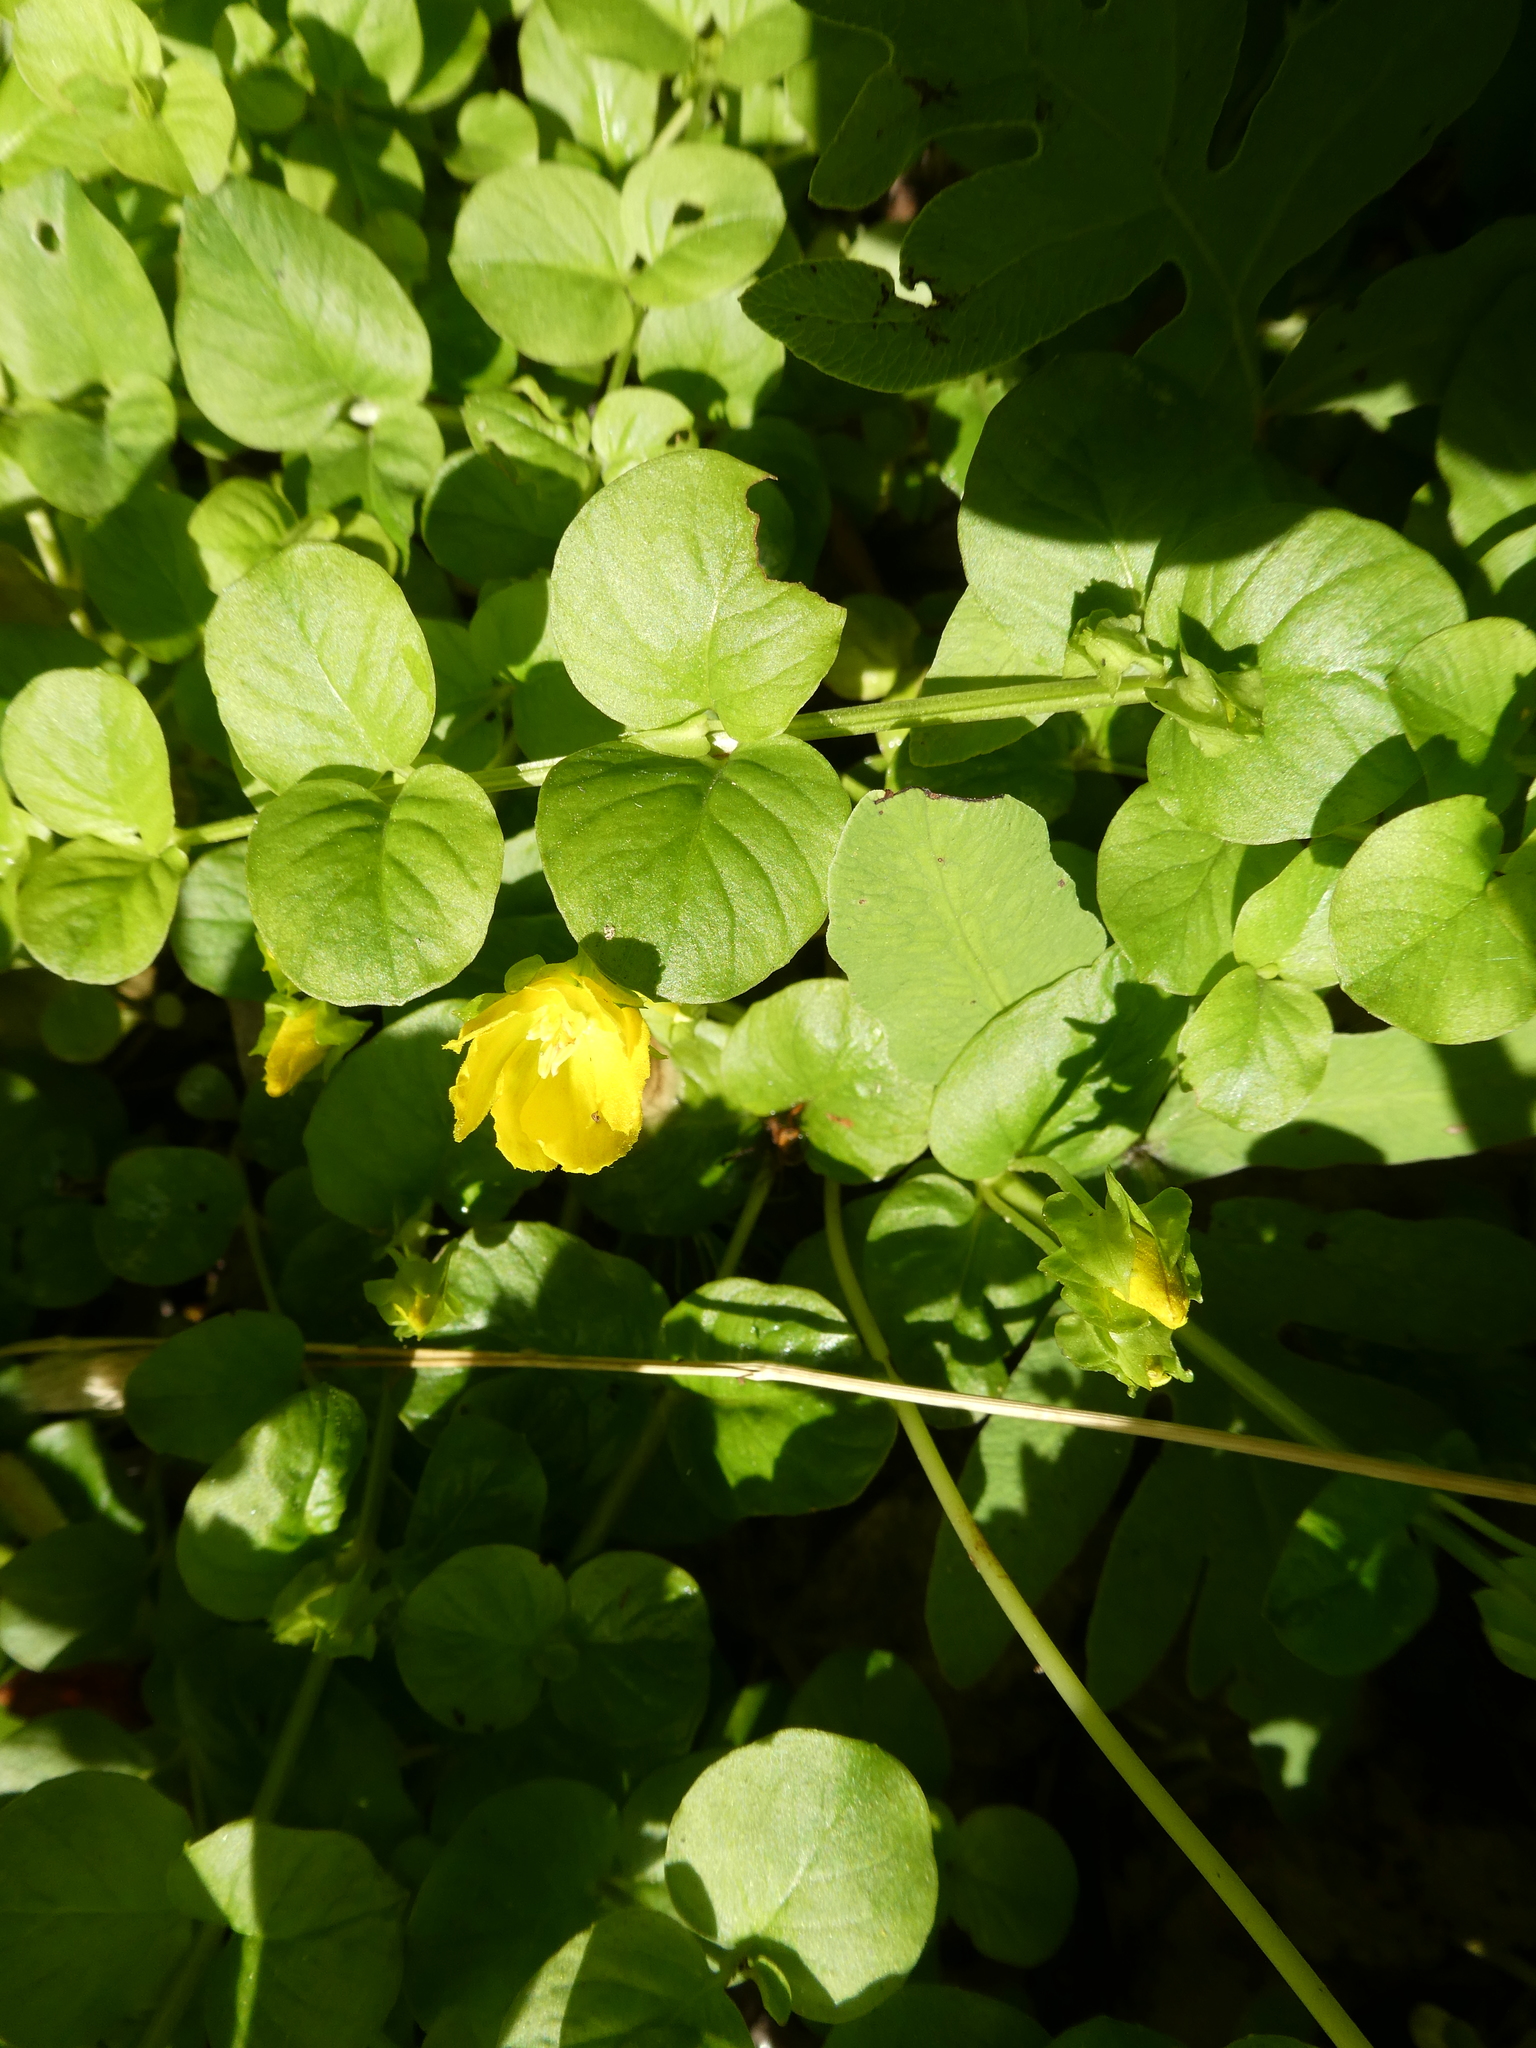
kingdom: Plantae
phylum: Tracheophyta
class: Magnoliopsida
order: Ericales
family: Primulaceae
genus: Lysimachia
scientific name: Lysimachia nummularia
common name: Moneywort
